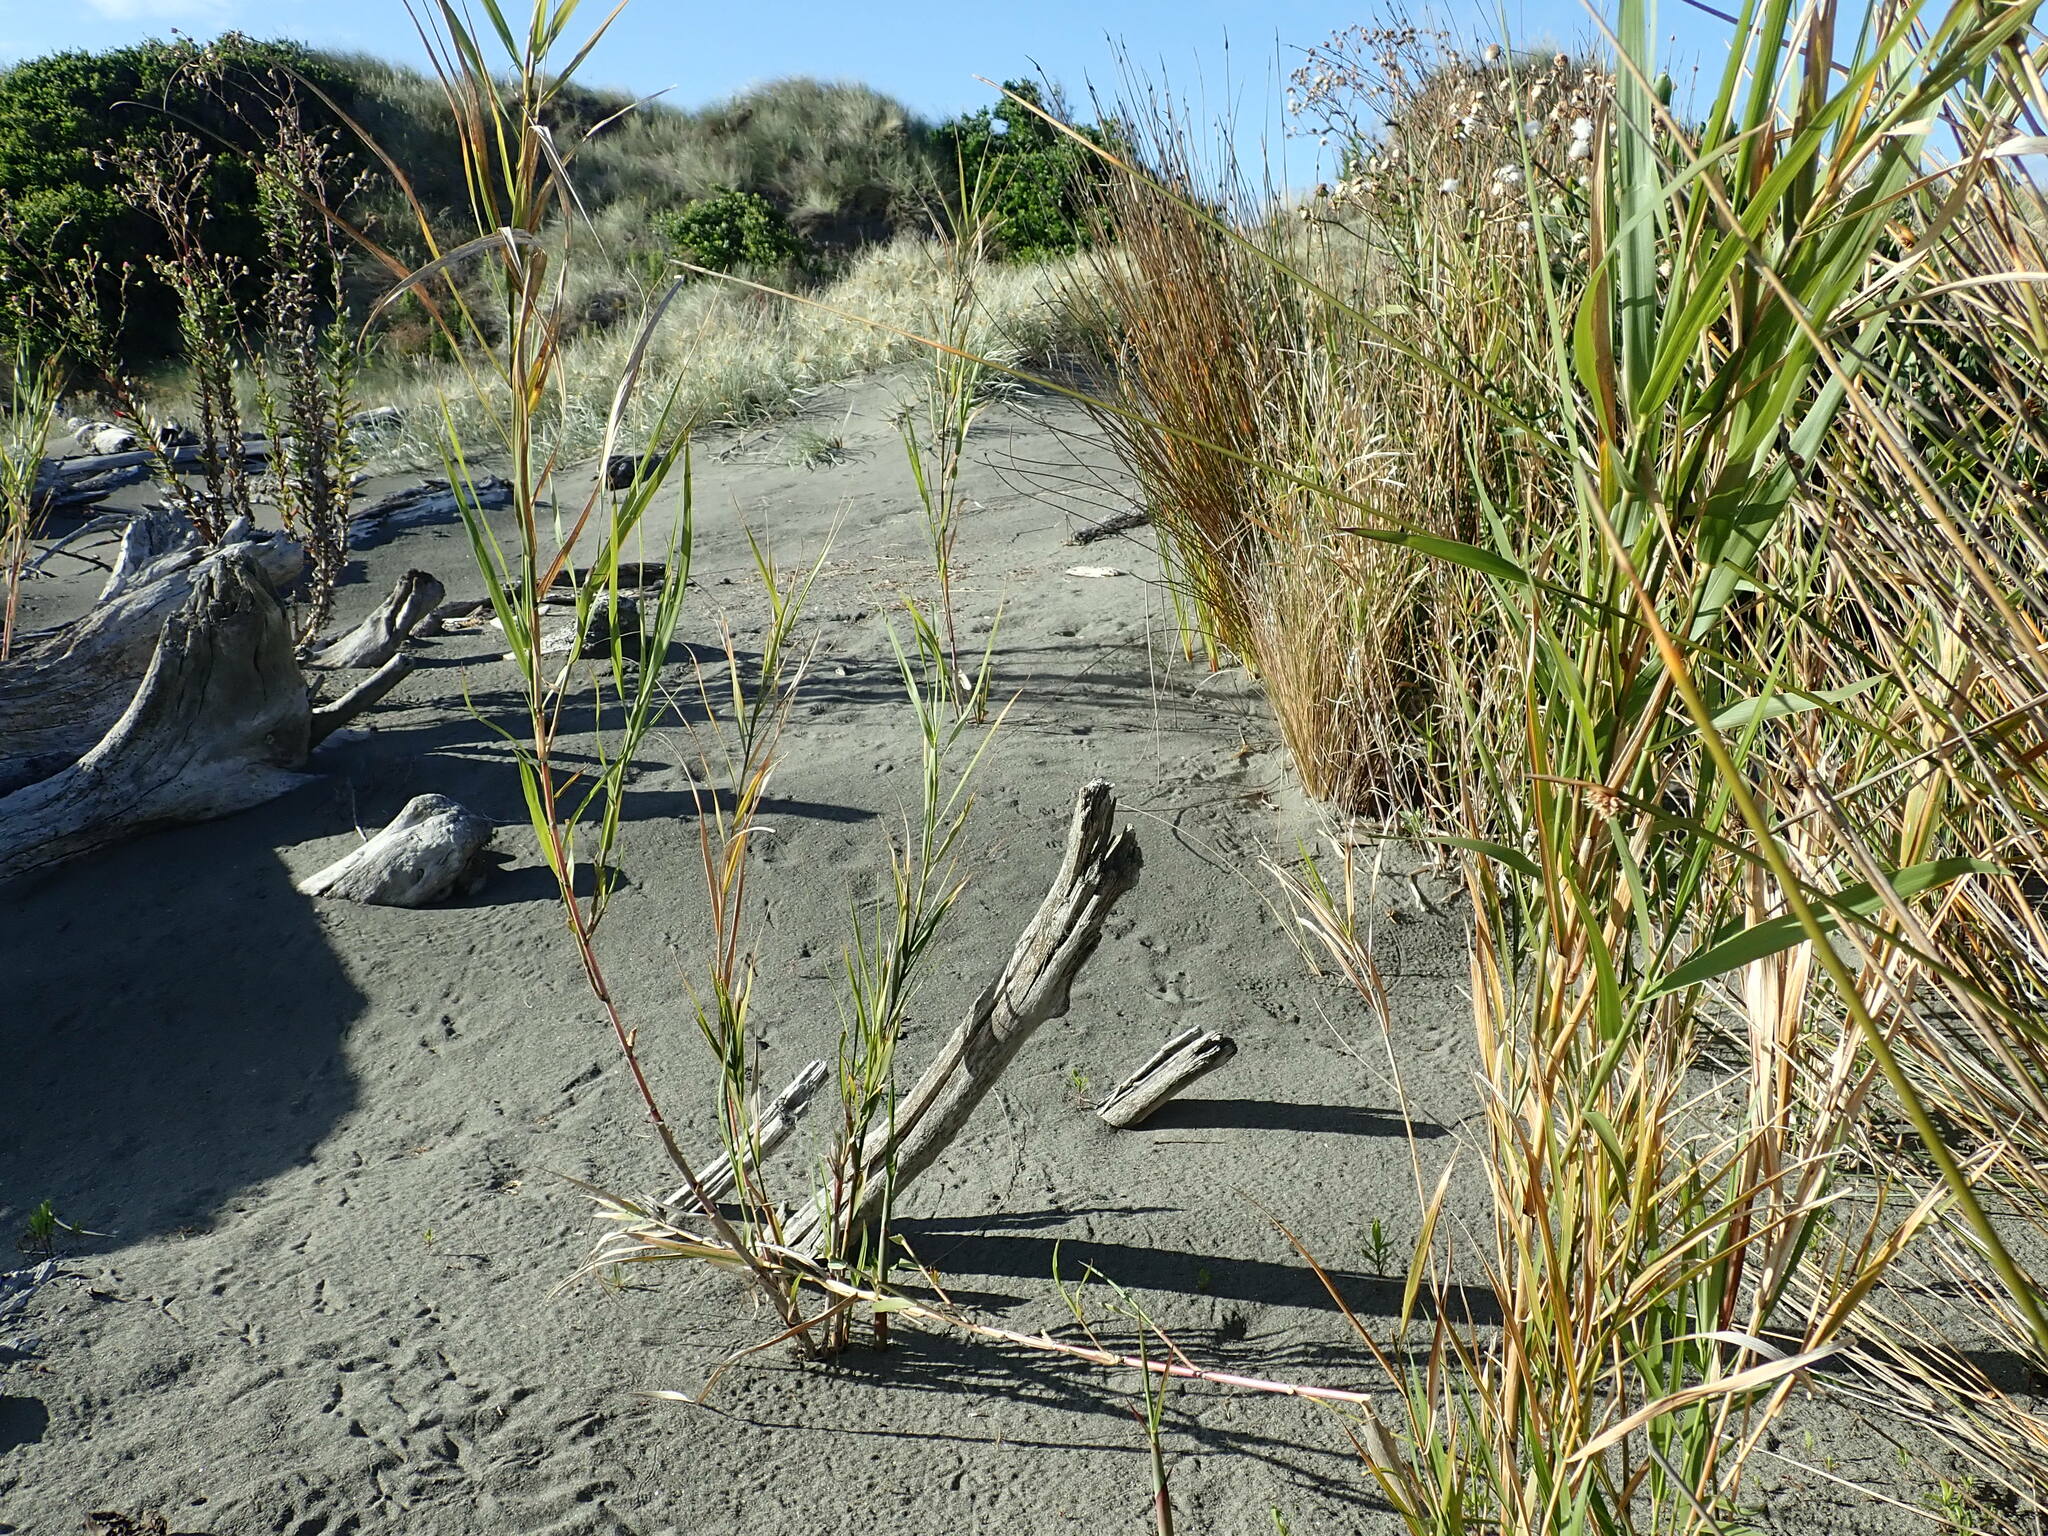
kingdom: Plantae
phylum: Tracheophyta
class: Liliopsida
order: Poales
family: Poaceae
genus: Phragmites
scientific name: Phragmites karka
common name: Tropical reed
